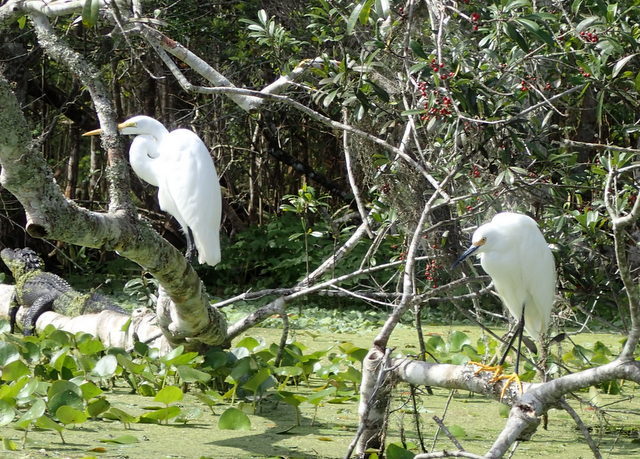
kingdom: Animalia
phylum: Chordata
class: Crocodylia
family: Alligatoridae
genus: Alligator
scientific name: Alligator mississippiensis
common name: American alligator
